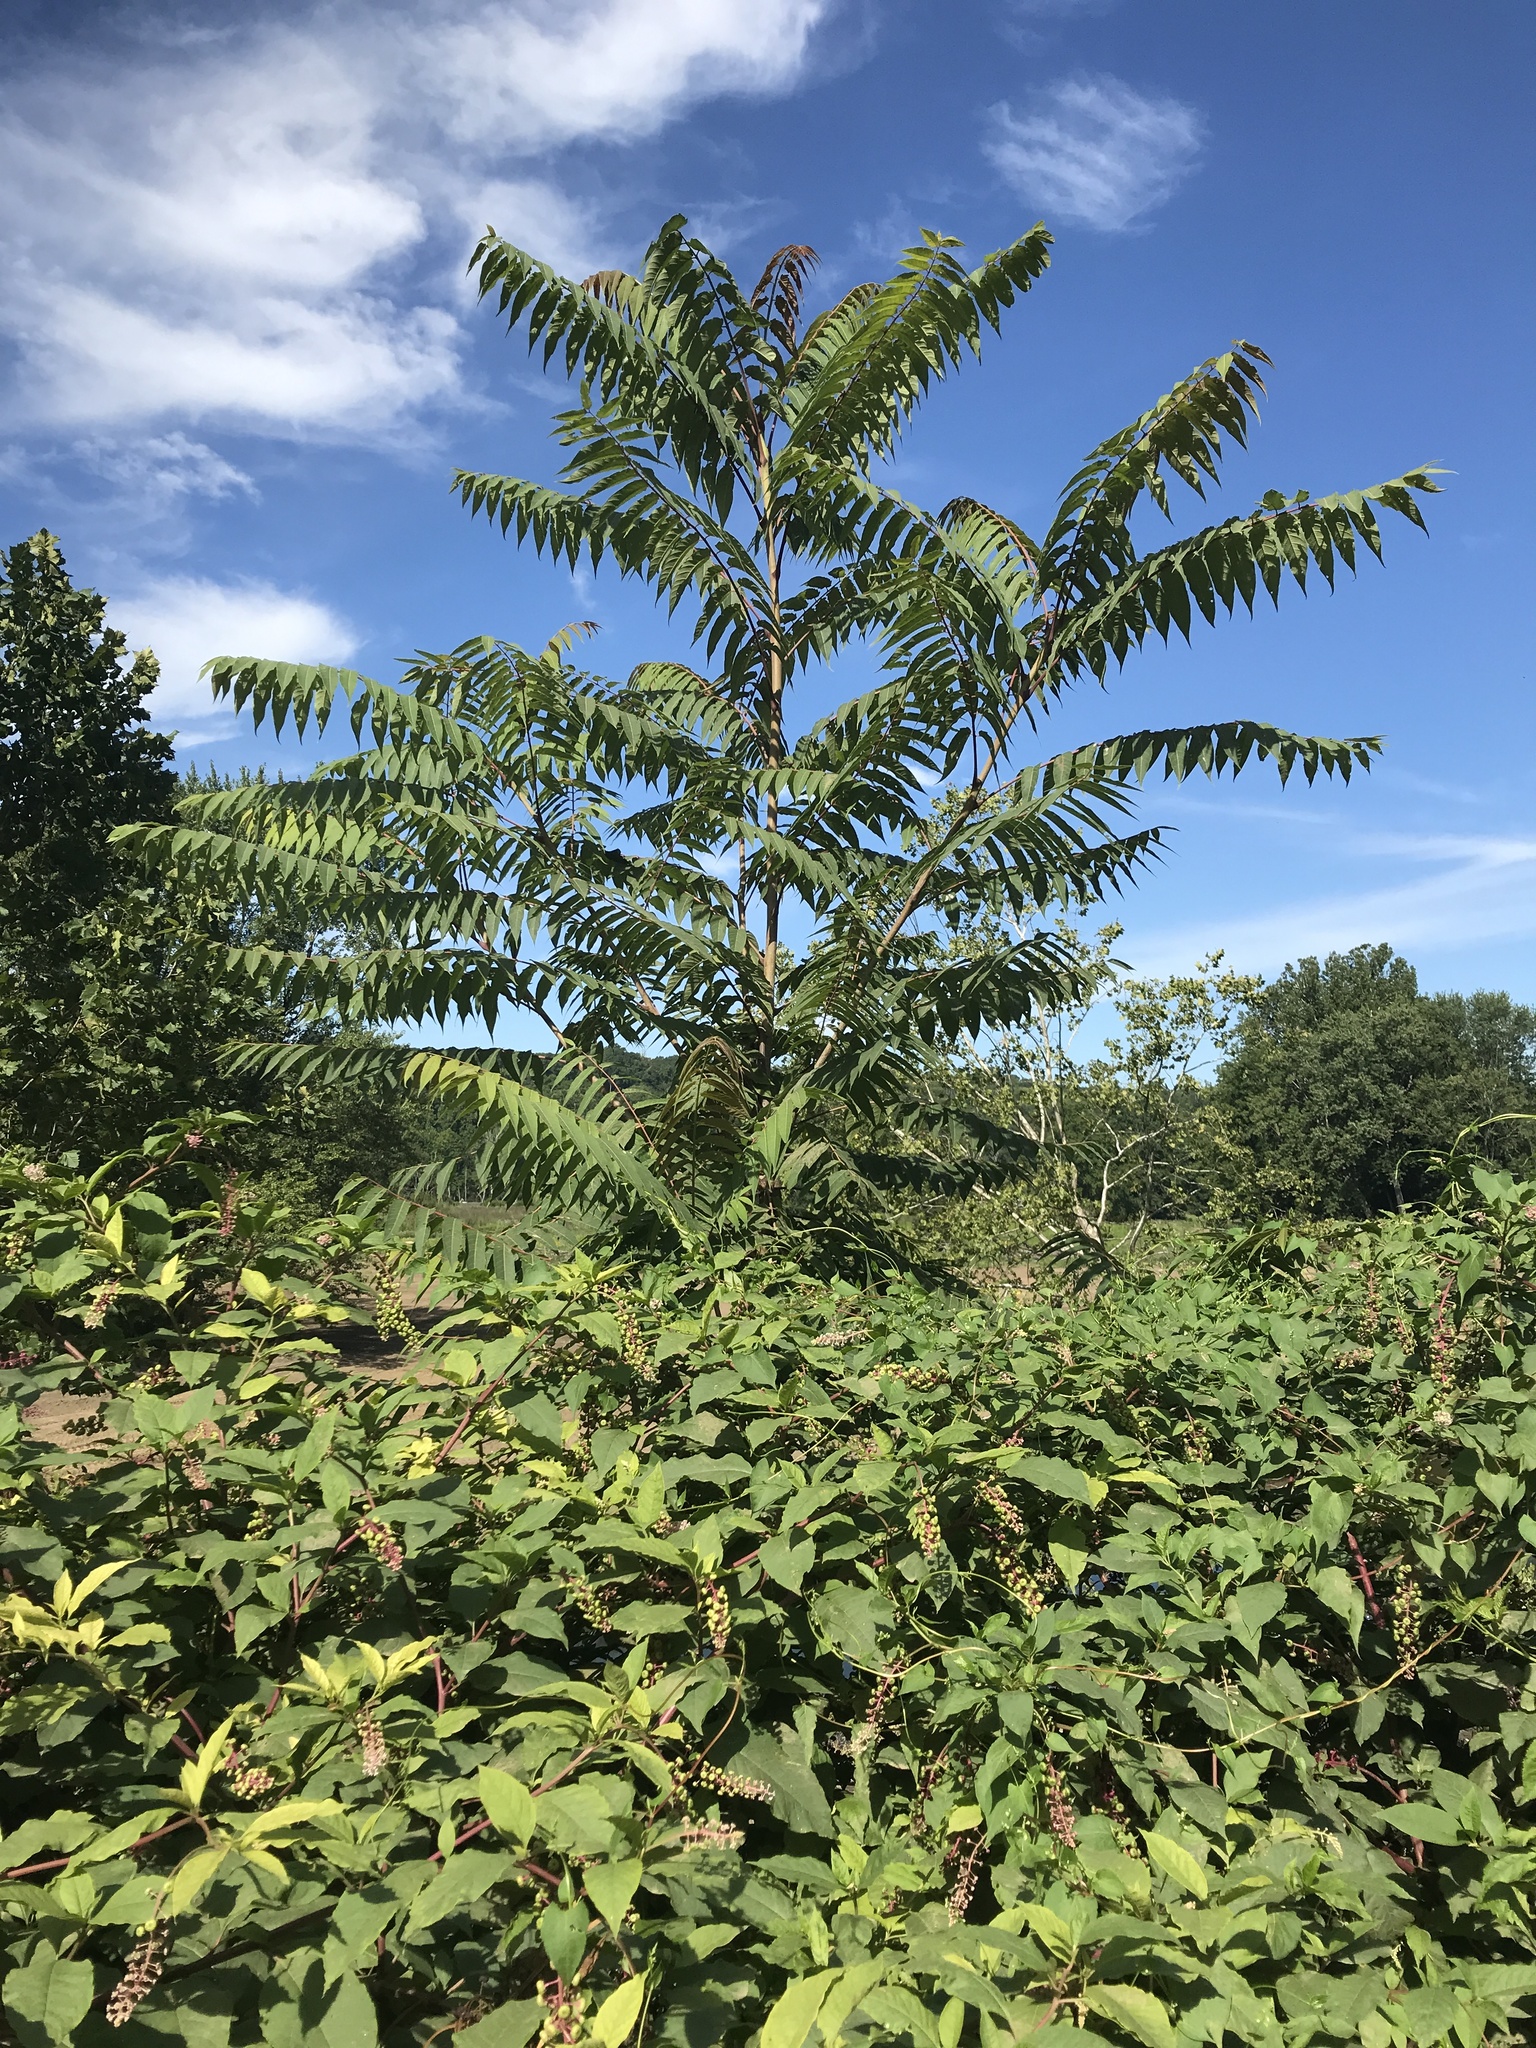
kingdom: Plantae
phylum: Tracheophyta
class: Magnoliopsida
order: Sapindales
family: Simaroubaceae
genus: Ailanthus
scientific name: Ailanthus altissima
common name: Tree-of-heaven
